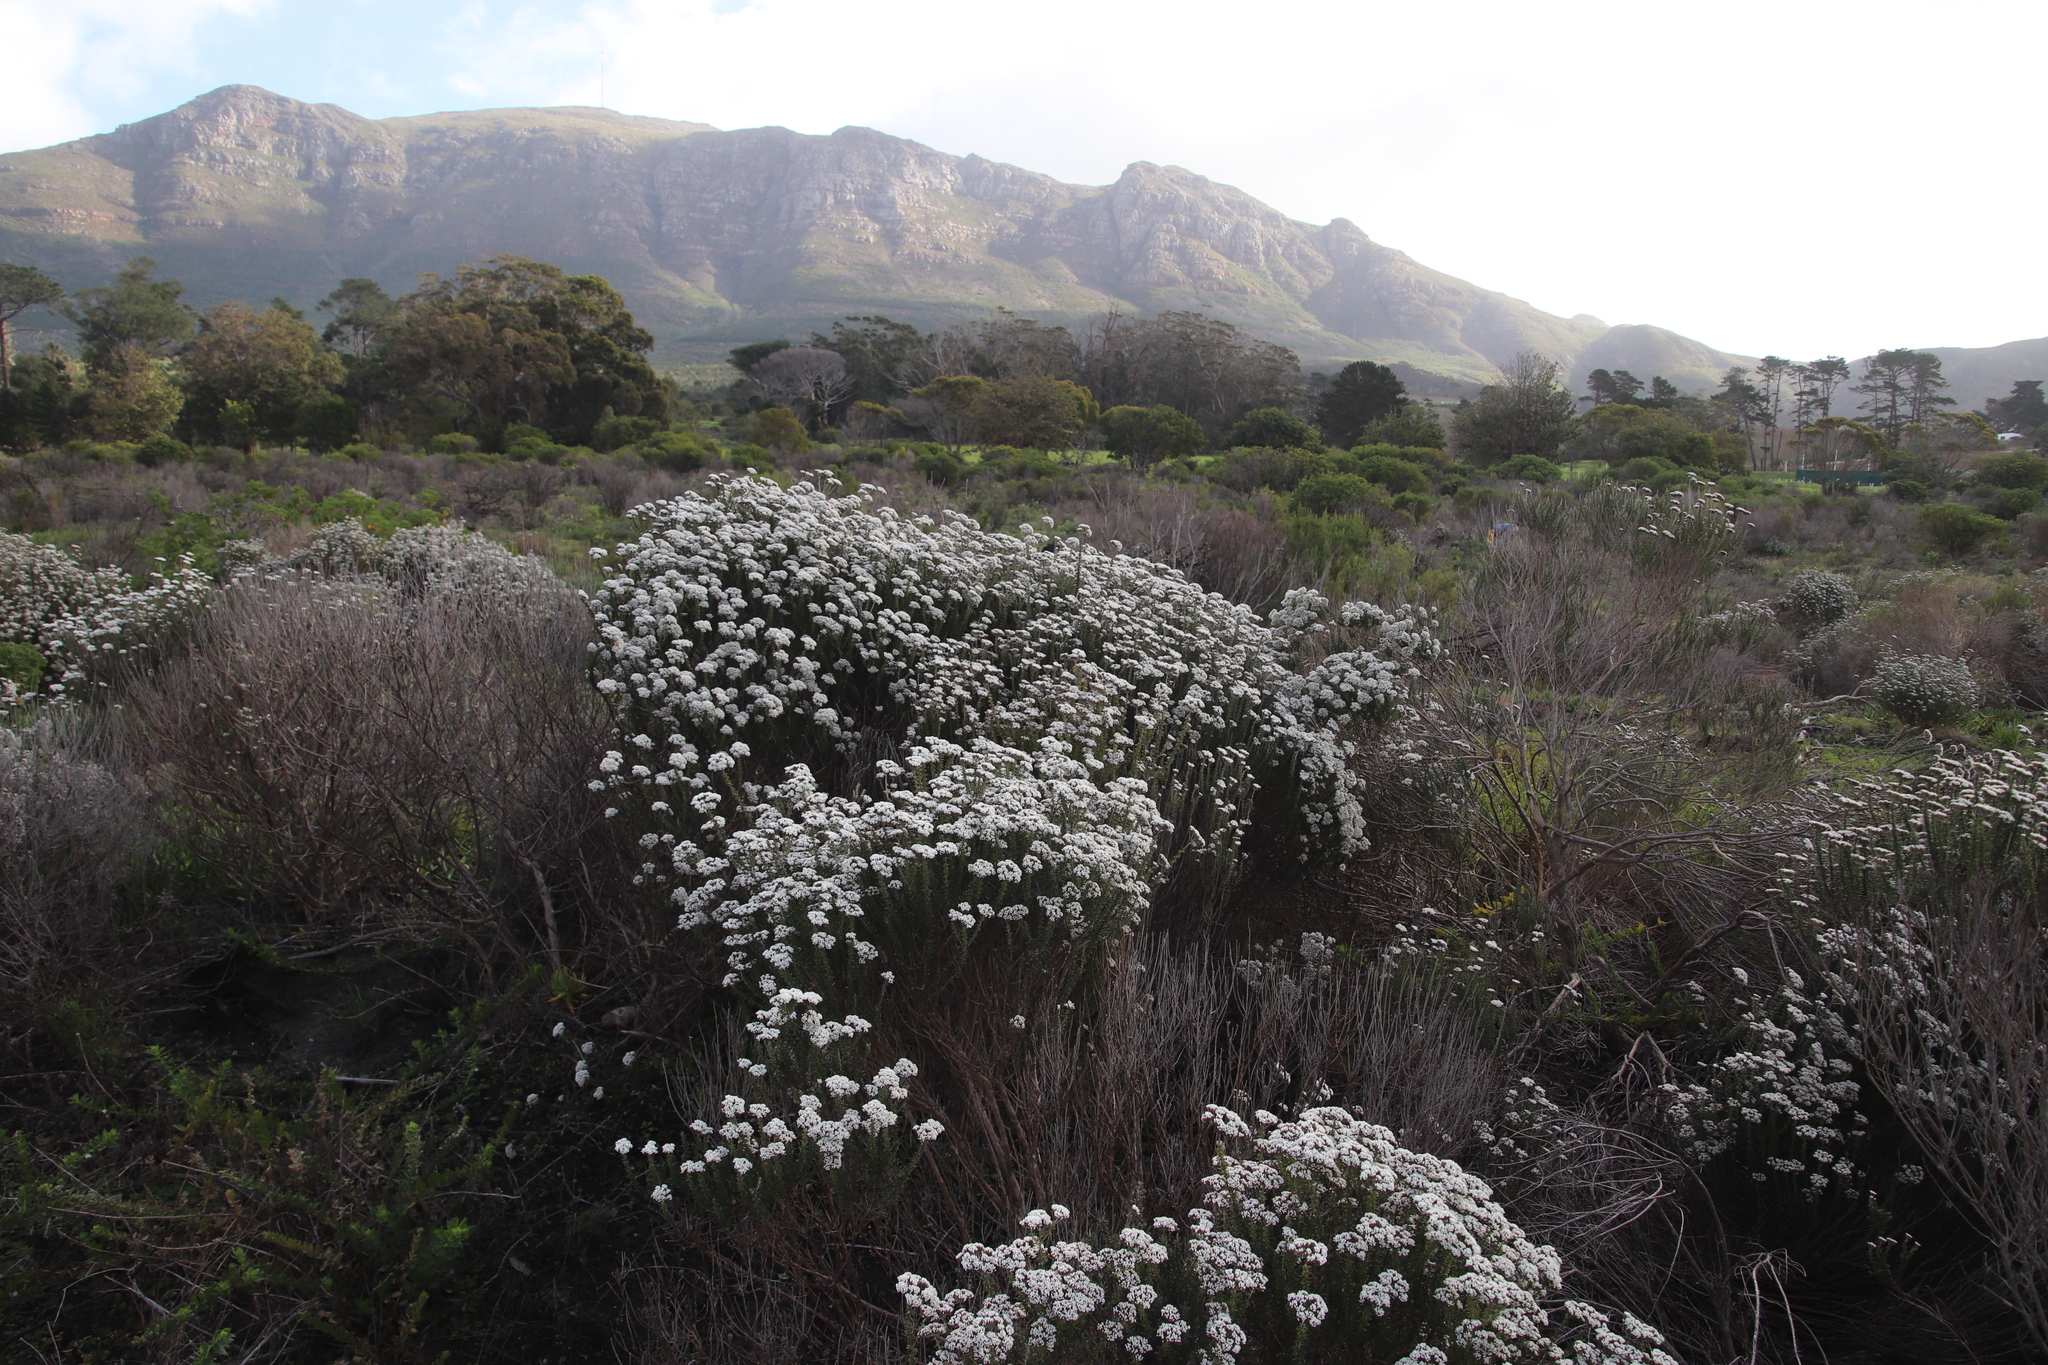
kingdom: Plantae
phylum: Tracheophyta
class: Magnoliopsida
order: Asterales
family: Asteraceae
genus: Metalasia
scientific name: Metalasia densa
